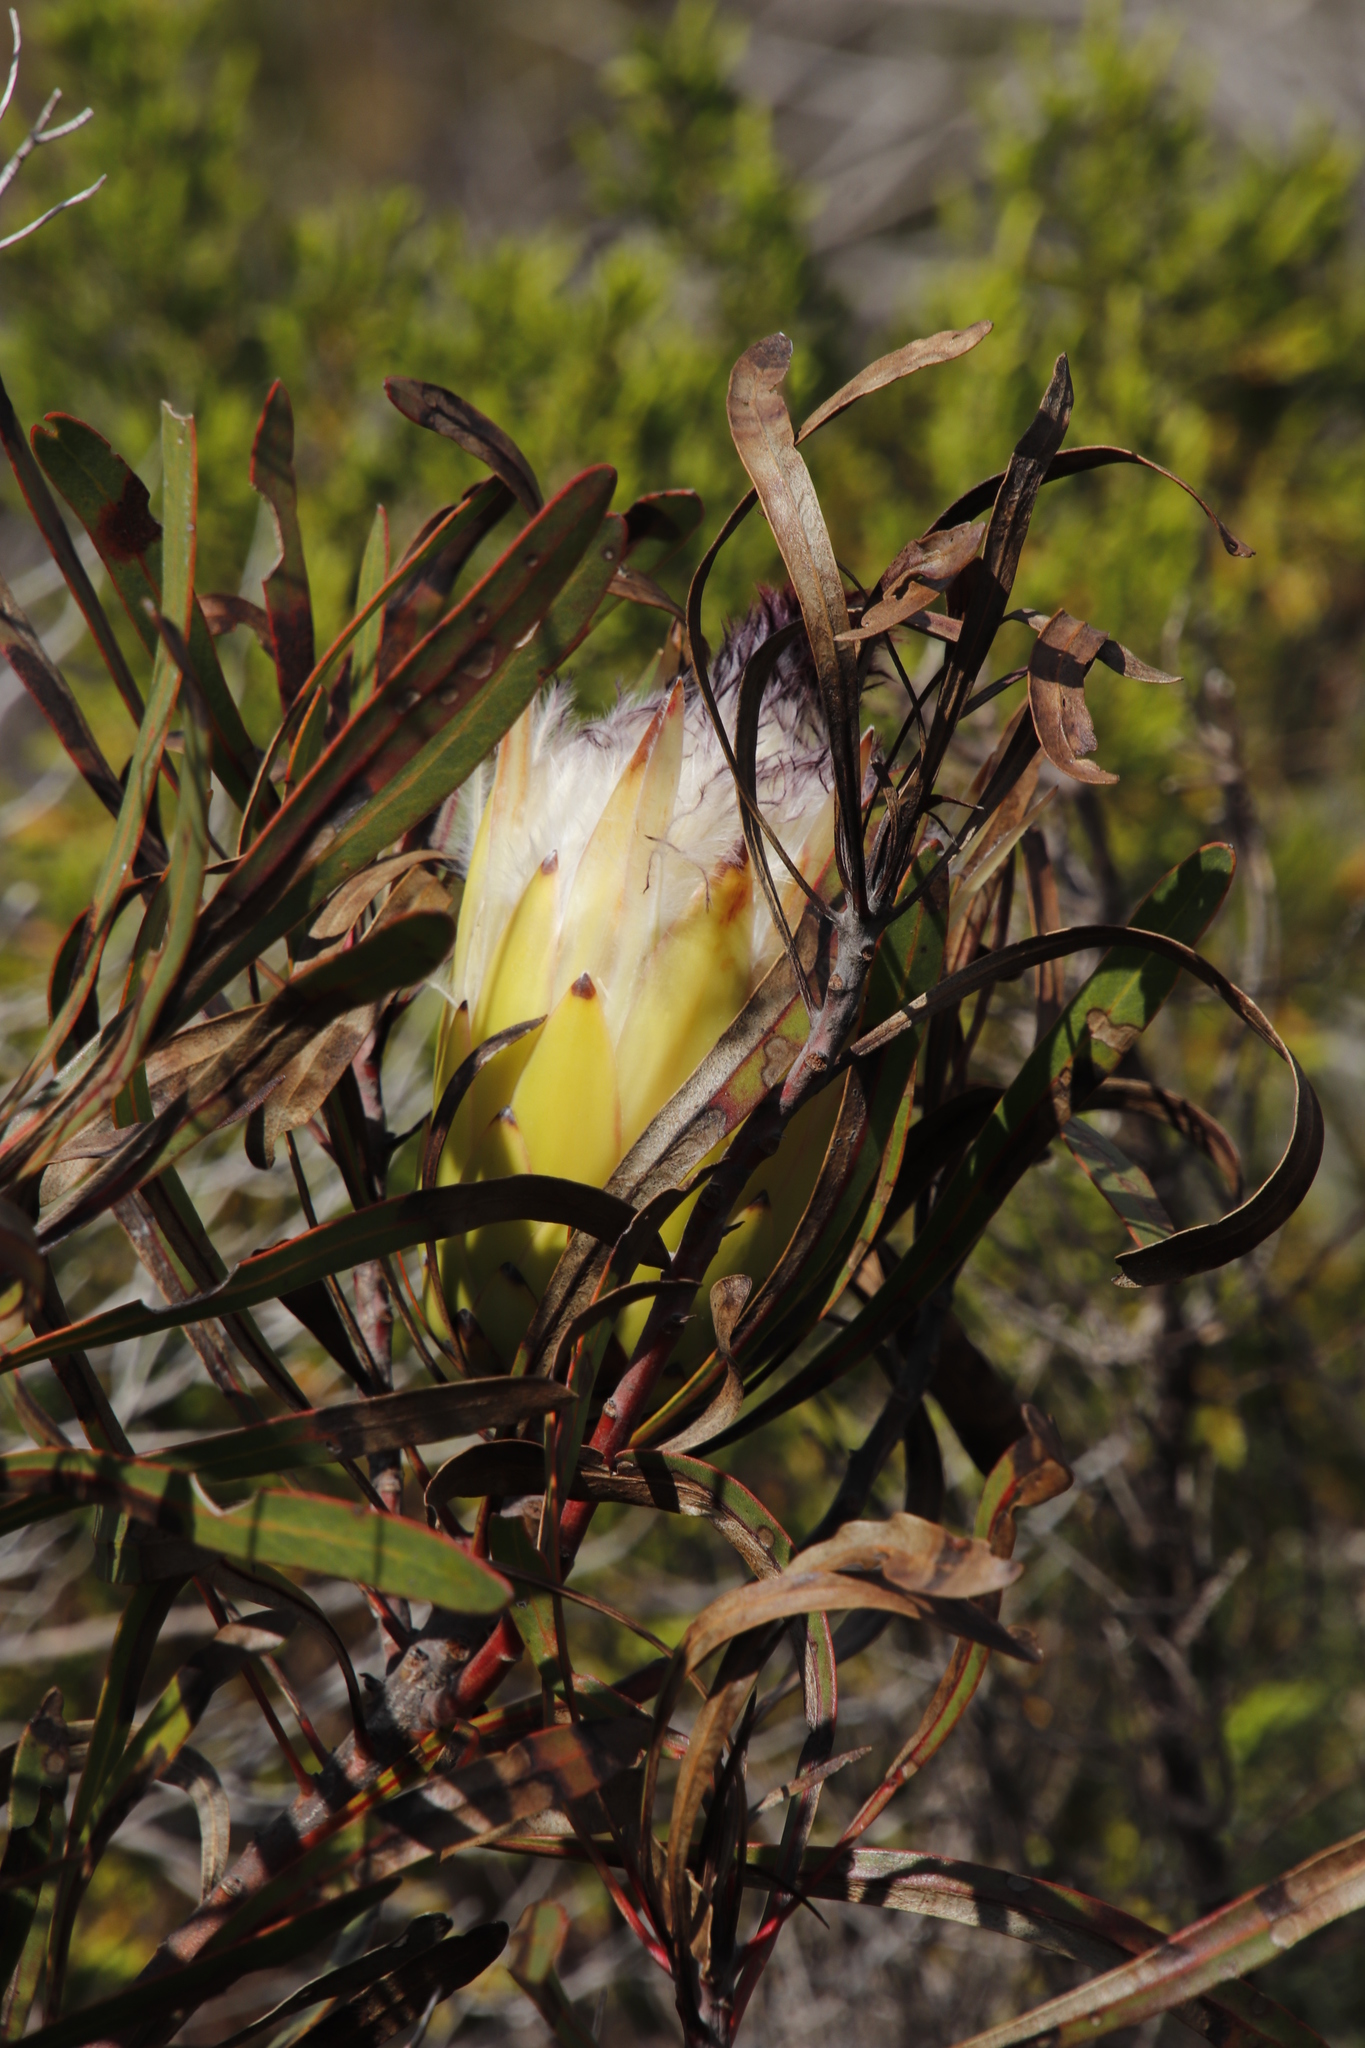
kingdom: Plantae
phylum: Tracheophyta
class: Magnoliopsida
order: Proteales
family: Proteaceae
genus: Protea
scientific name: Protea longifolia
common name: Long-leaf sugarbush
